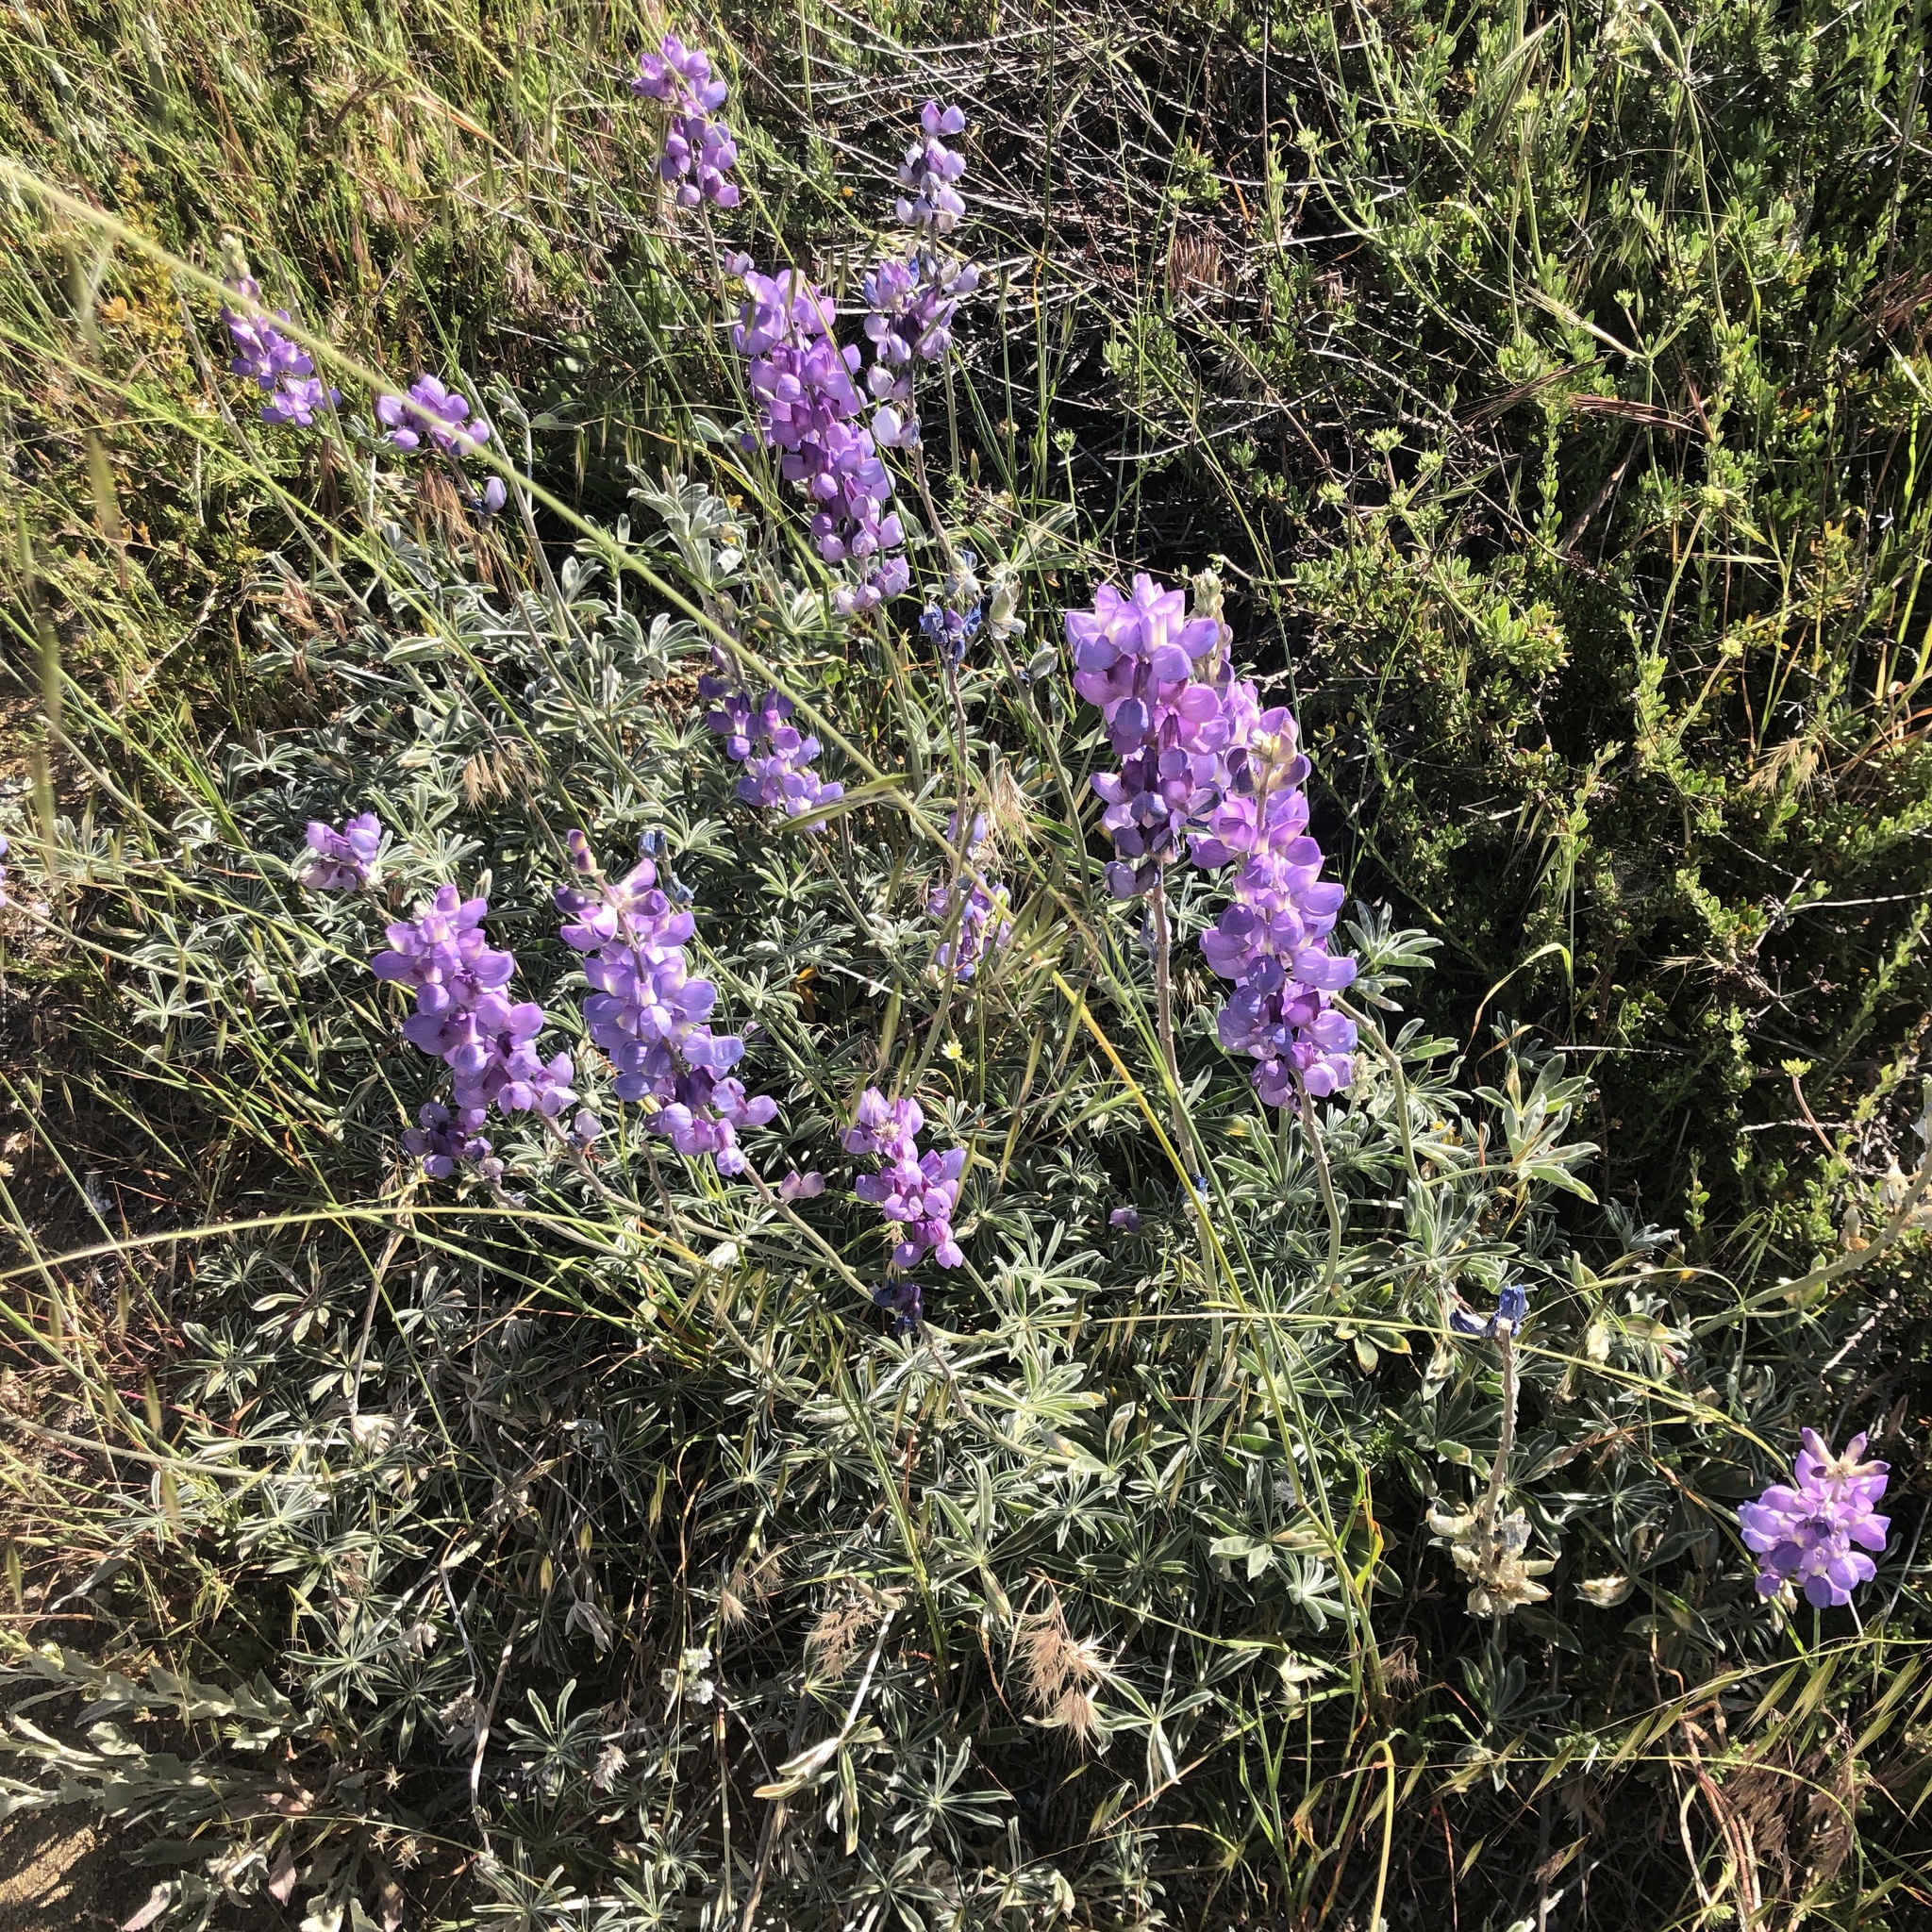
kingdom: Plantae
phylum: Tracheophyta
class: Magnoliopsida
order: Fabales
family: Fabaceae
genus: Lupinus
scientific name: Lupinus excubitus
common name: Grape soda lupine
